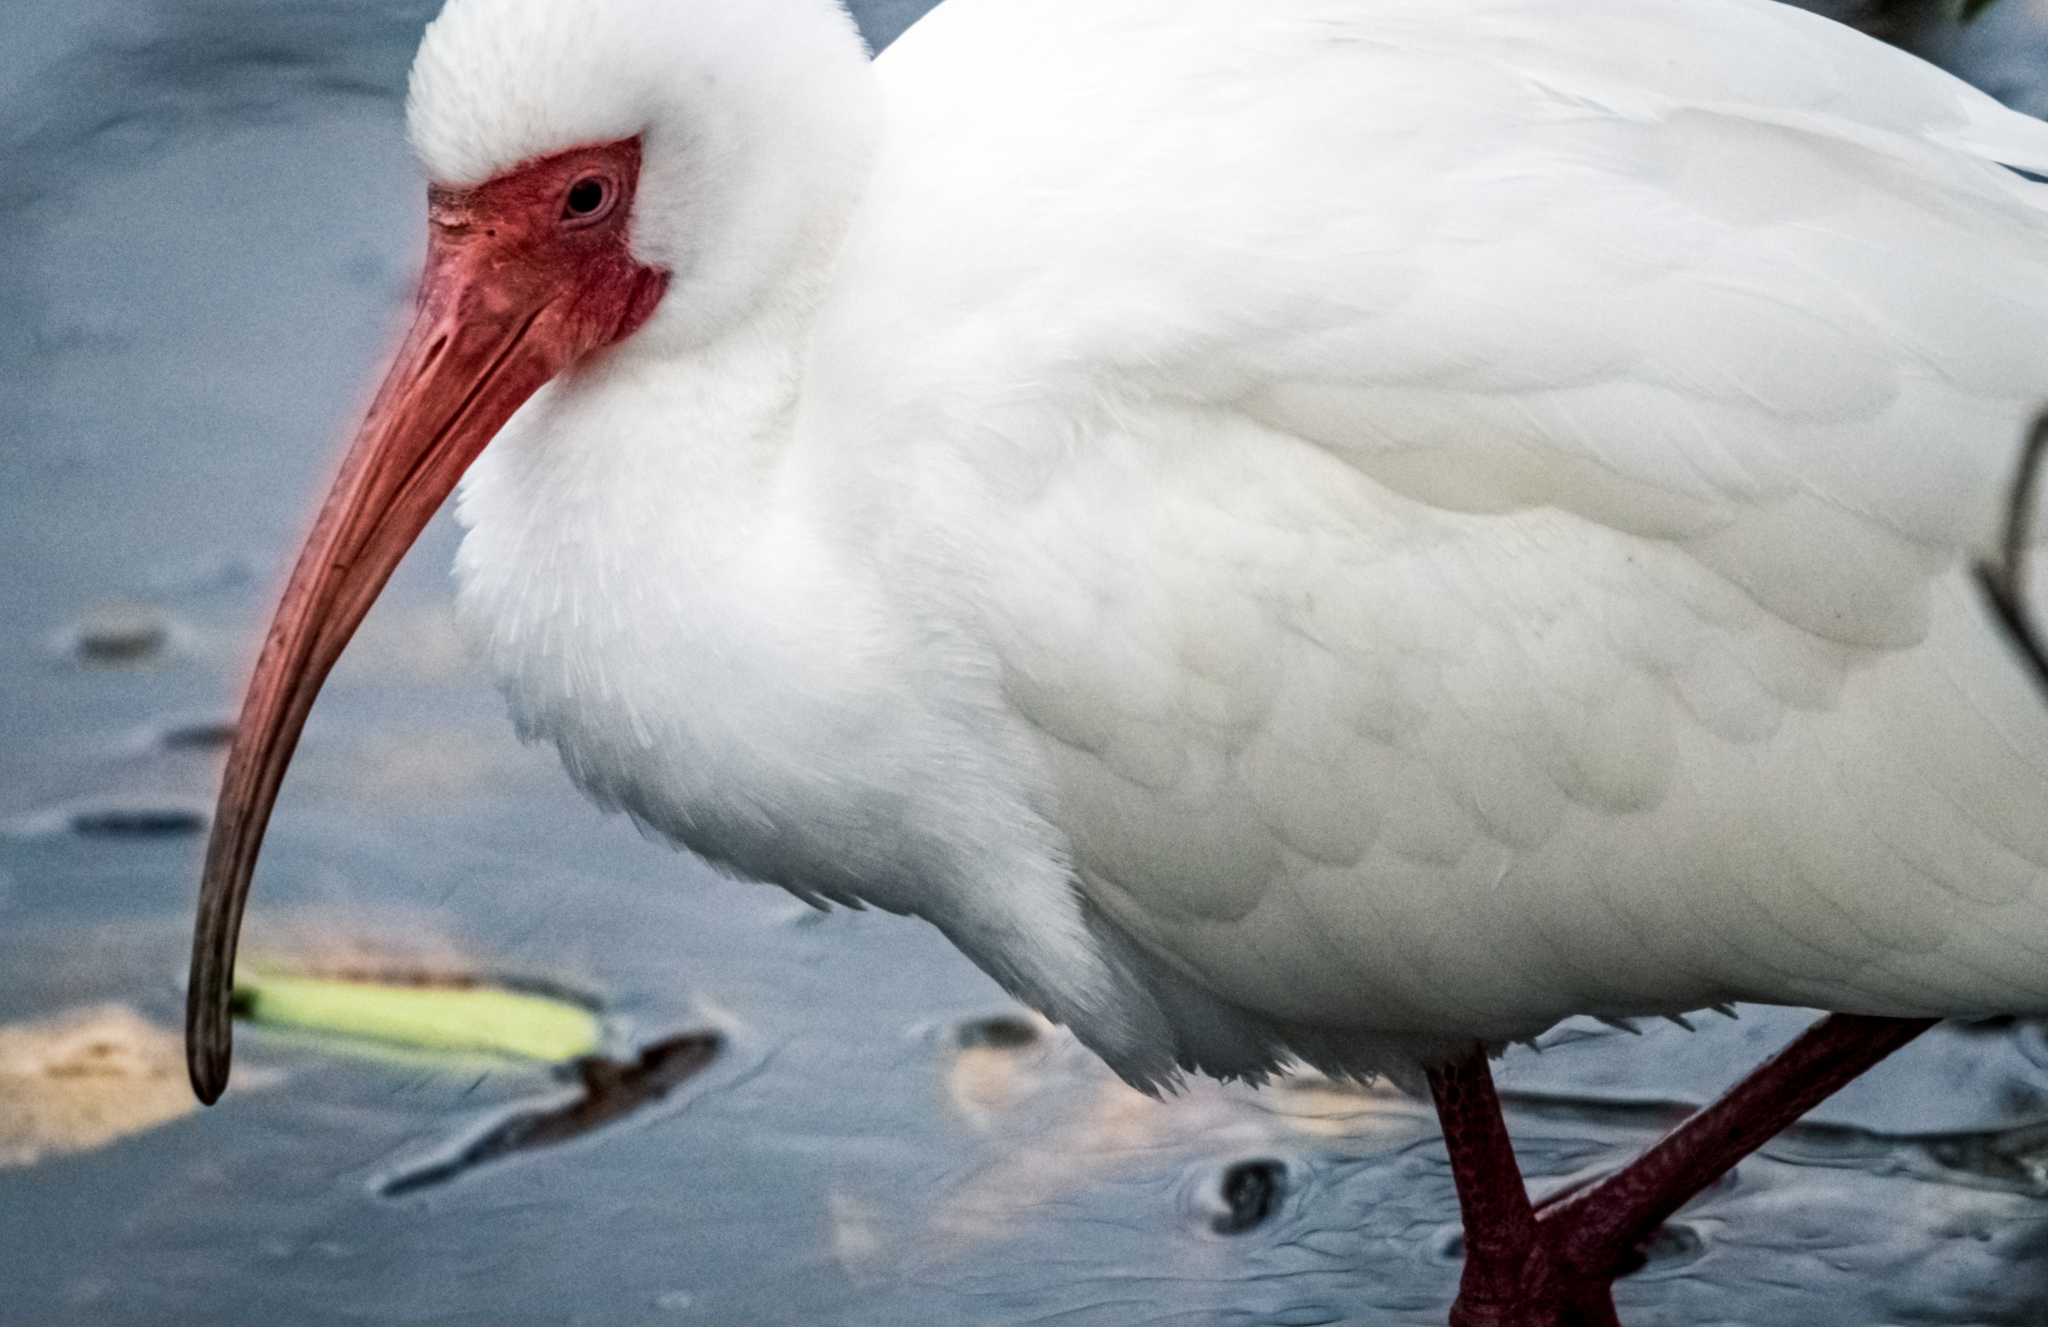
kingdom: Animalia
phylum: Chordata
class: Aves
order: Pelecaniformes
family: Threskiornithidae
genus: Eudocimus
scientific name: Eudocimus albus
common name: White ibis
